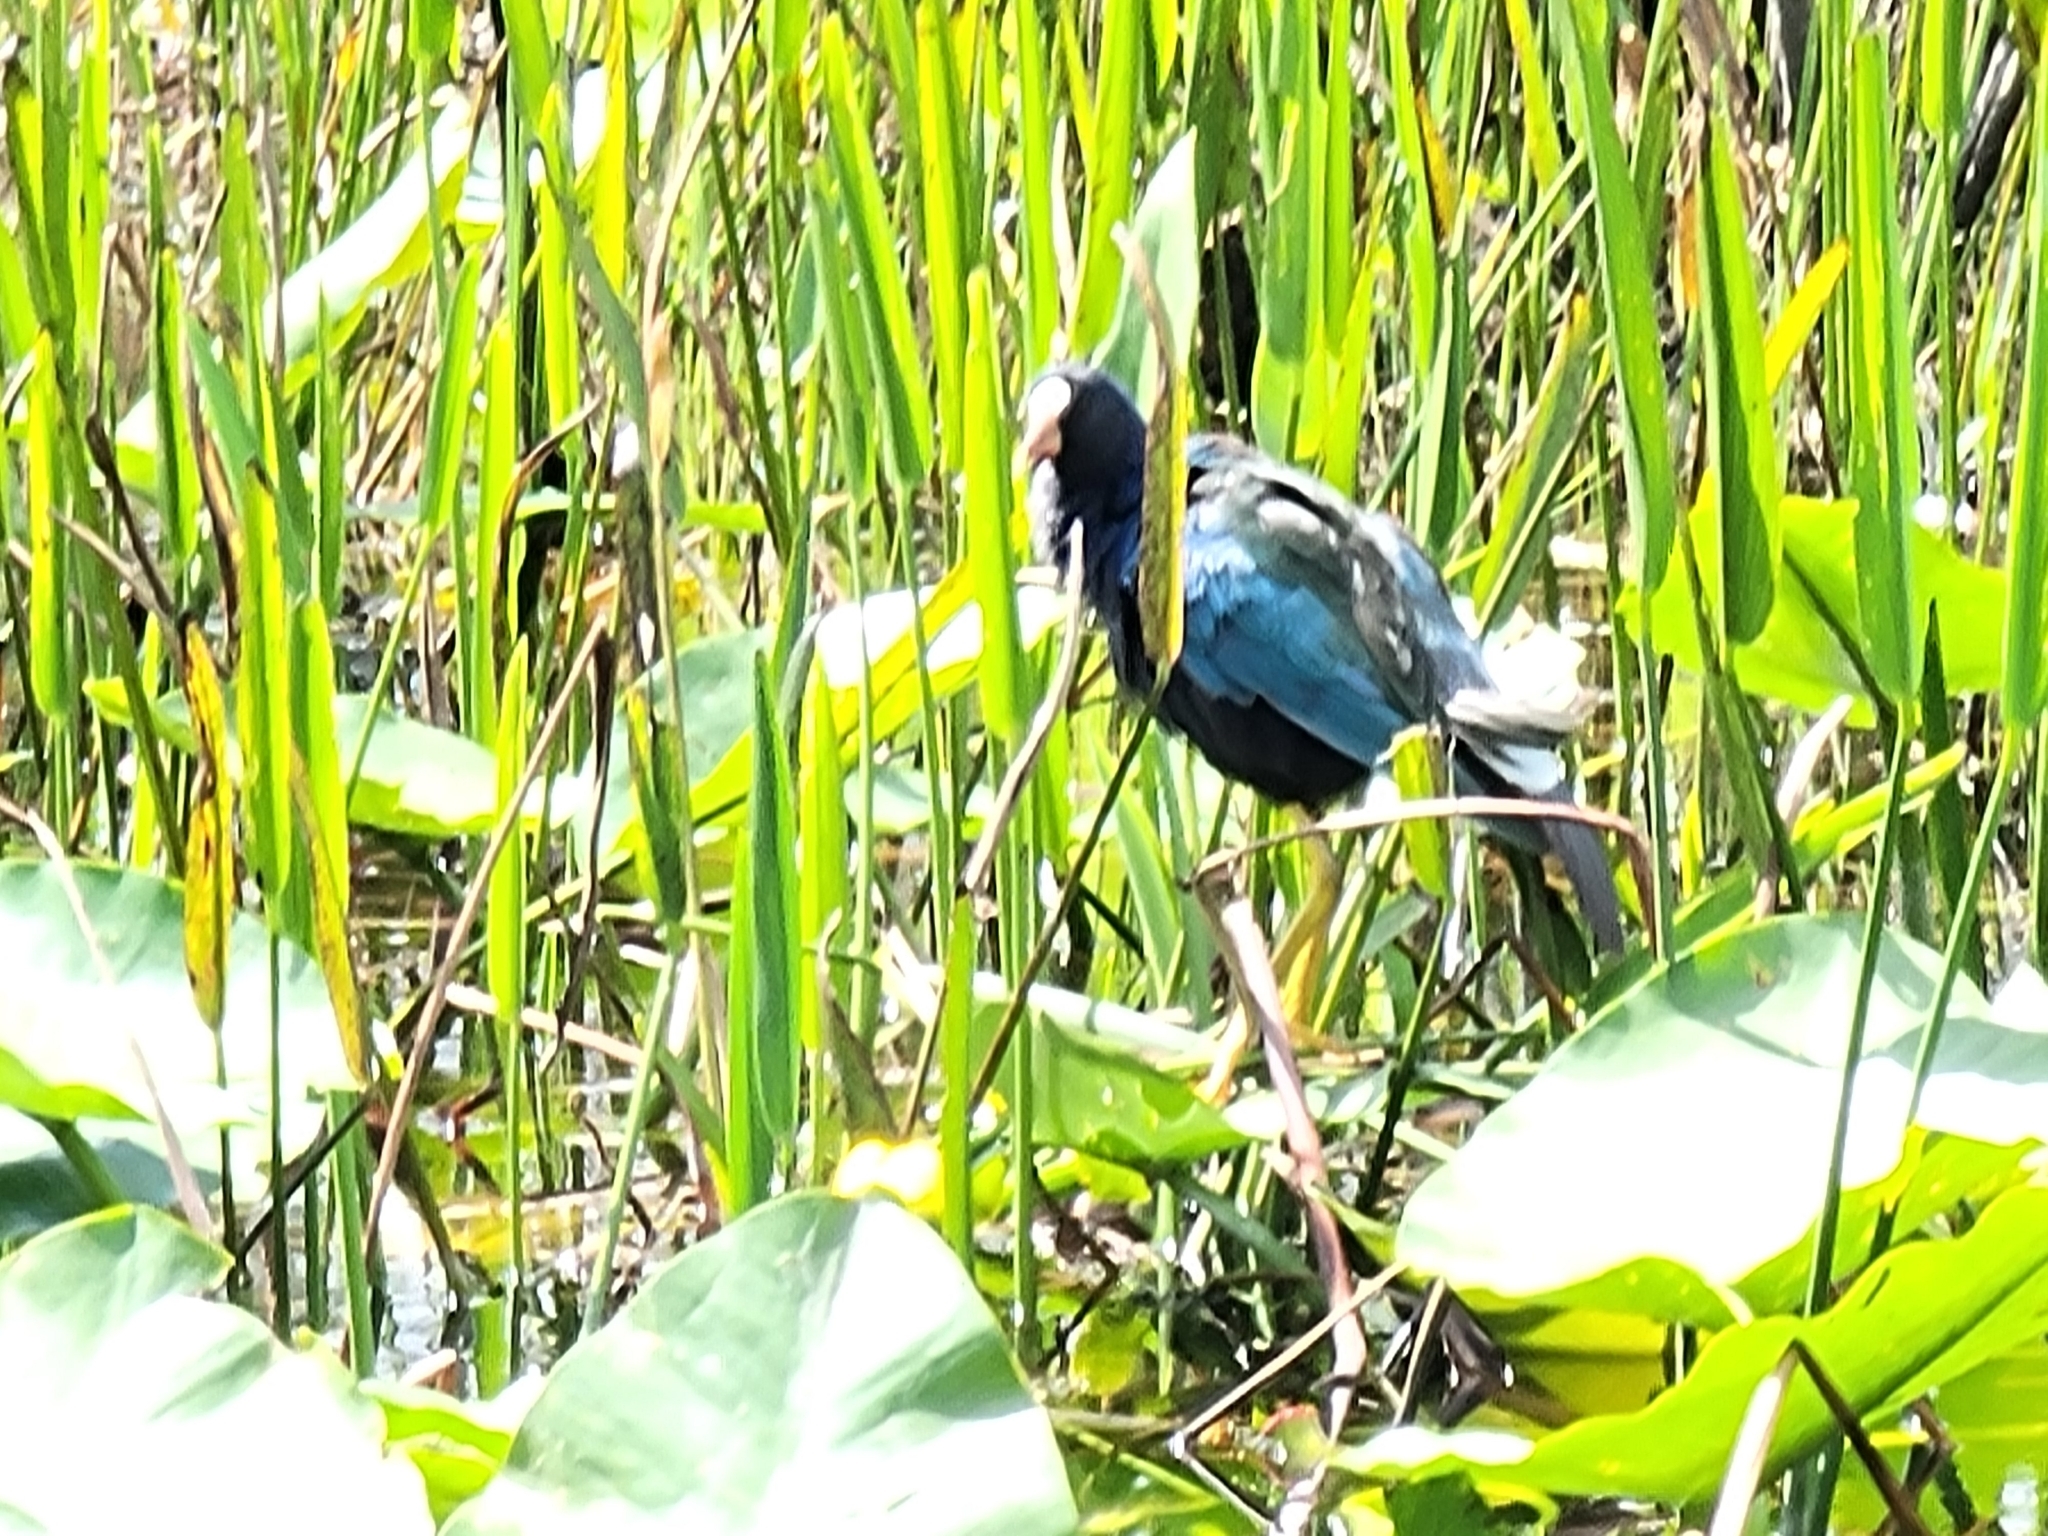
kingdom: Animalia
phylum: Chordata
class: Aves
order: Gruiformes
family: Rallidae
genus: Porphyrio
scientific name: Porphyrio martinica
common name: Purple gallinule
